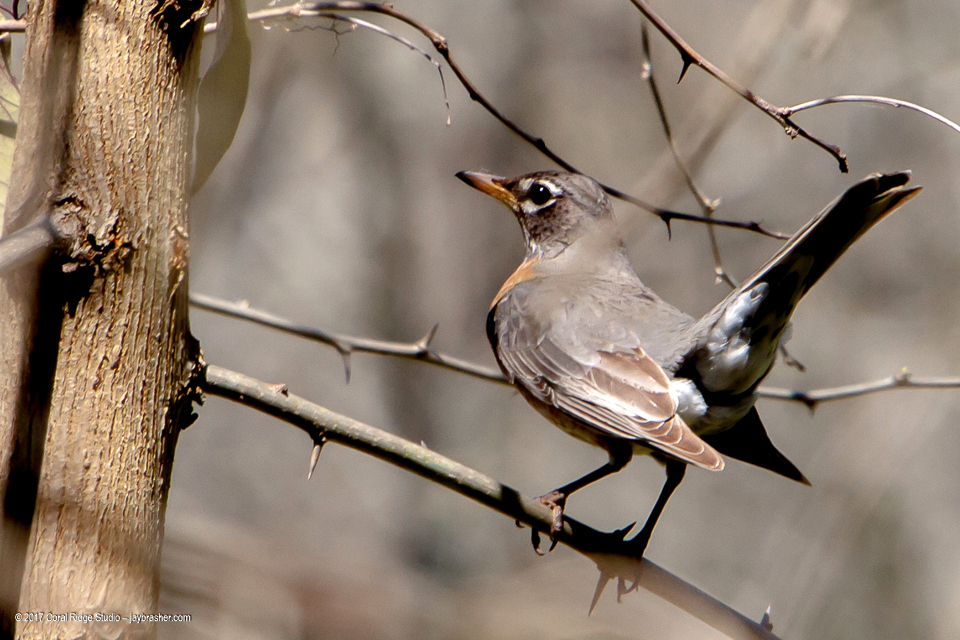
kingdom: Animalia
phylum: Chordata
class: Aves
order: Passeriformes
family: Turdidae
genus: Turdus
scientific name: Turdus migratorius
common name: American robin
